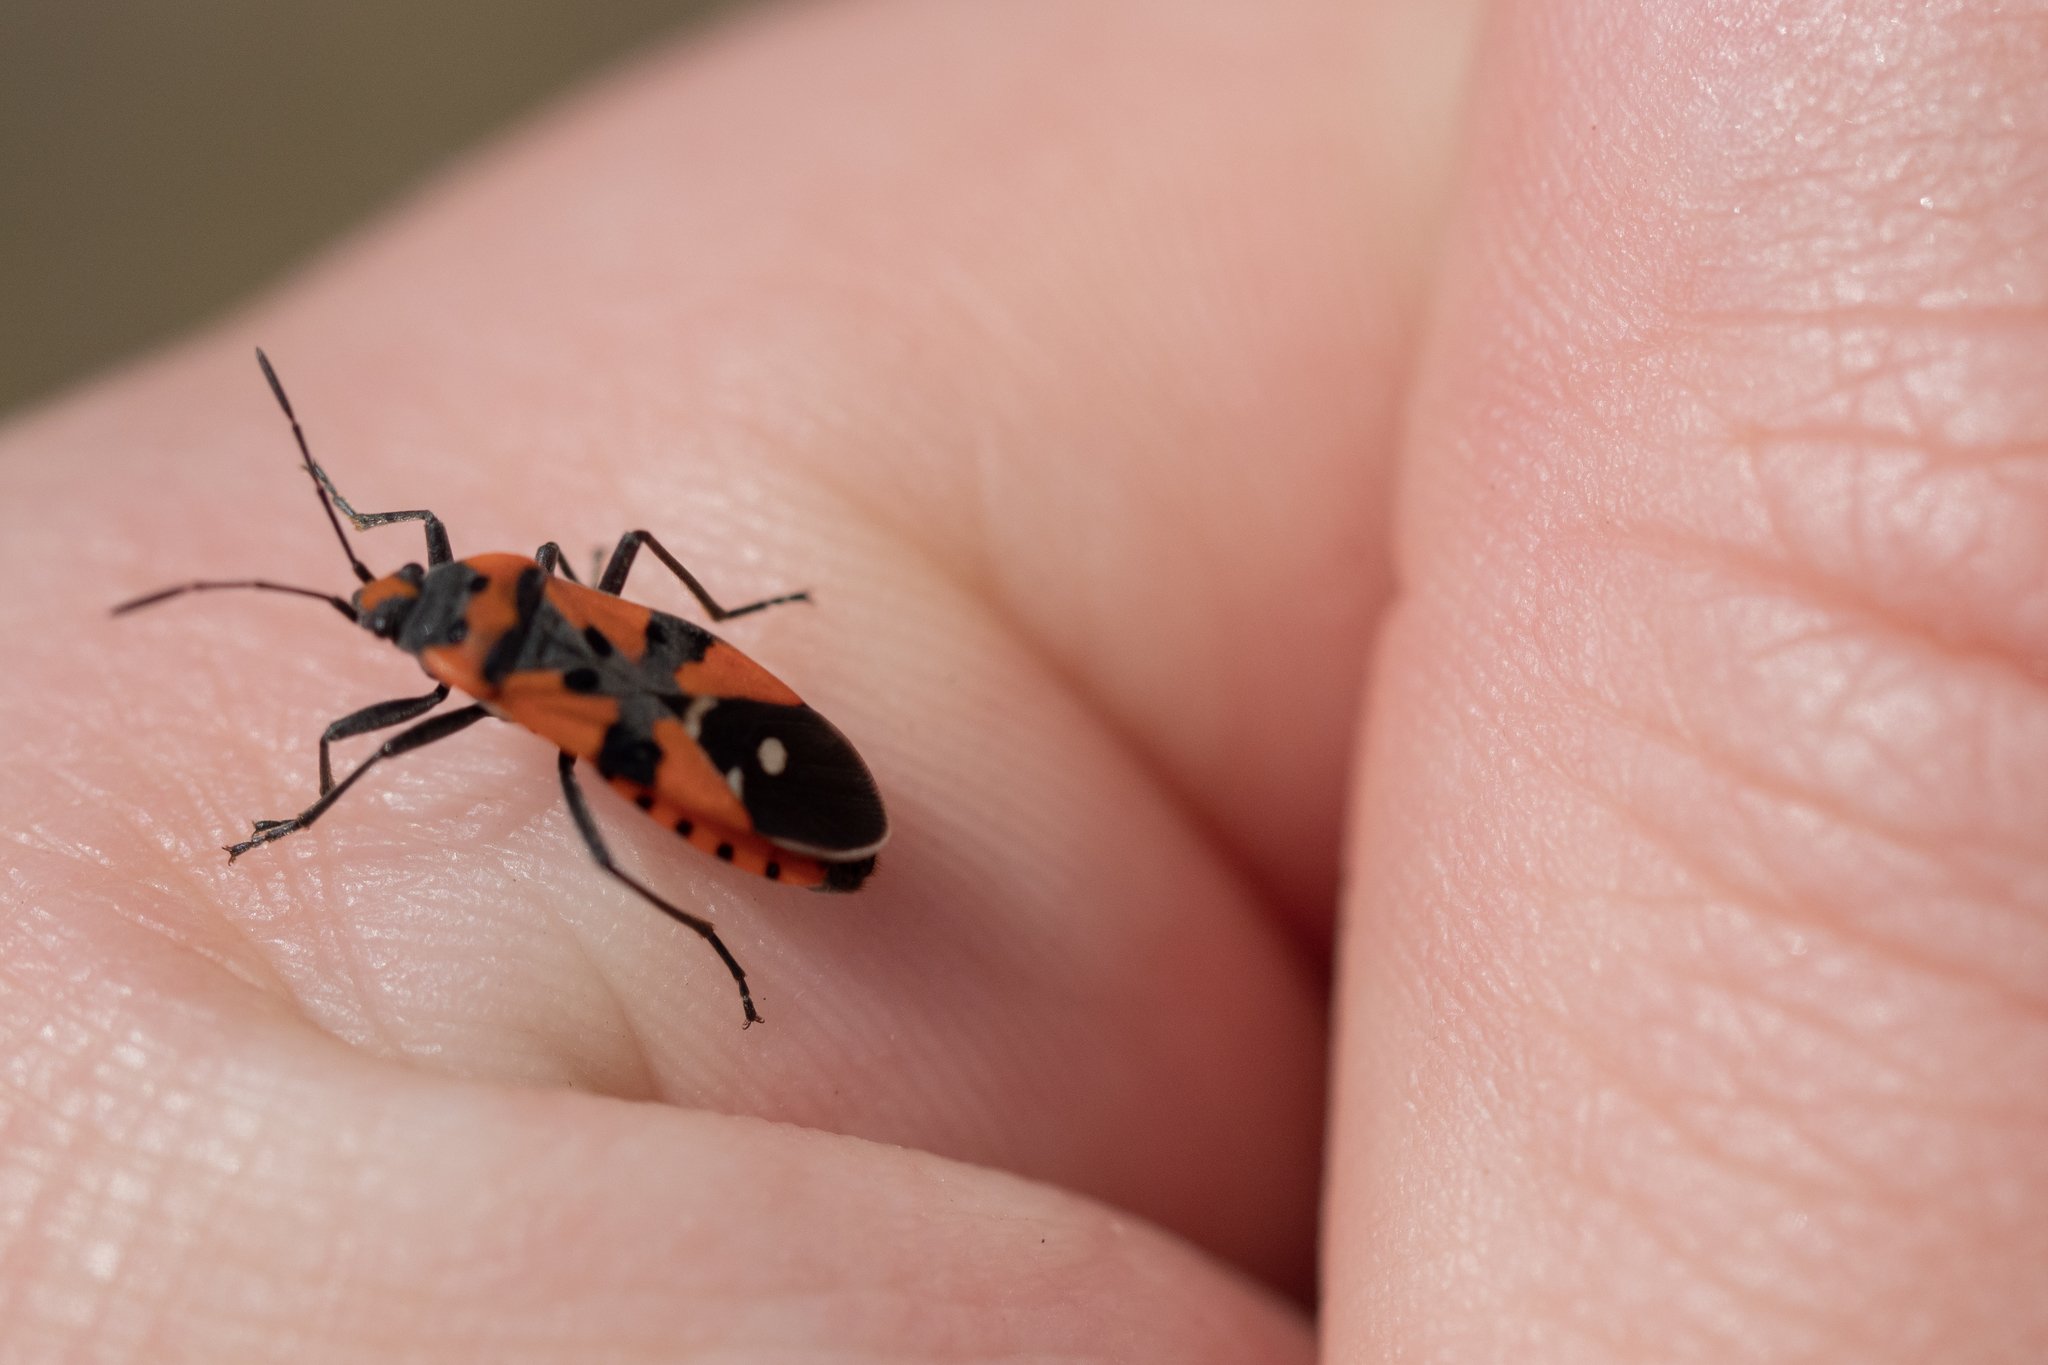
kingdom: Animalia
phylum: Arthropoda
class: Insecta
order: Hemiptera
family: Lygaeidae
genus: Lygaeus
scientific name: Lygaeus equestris
